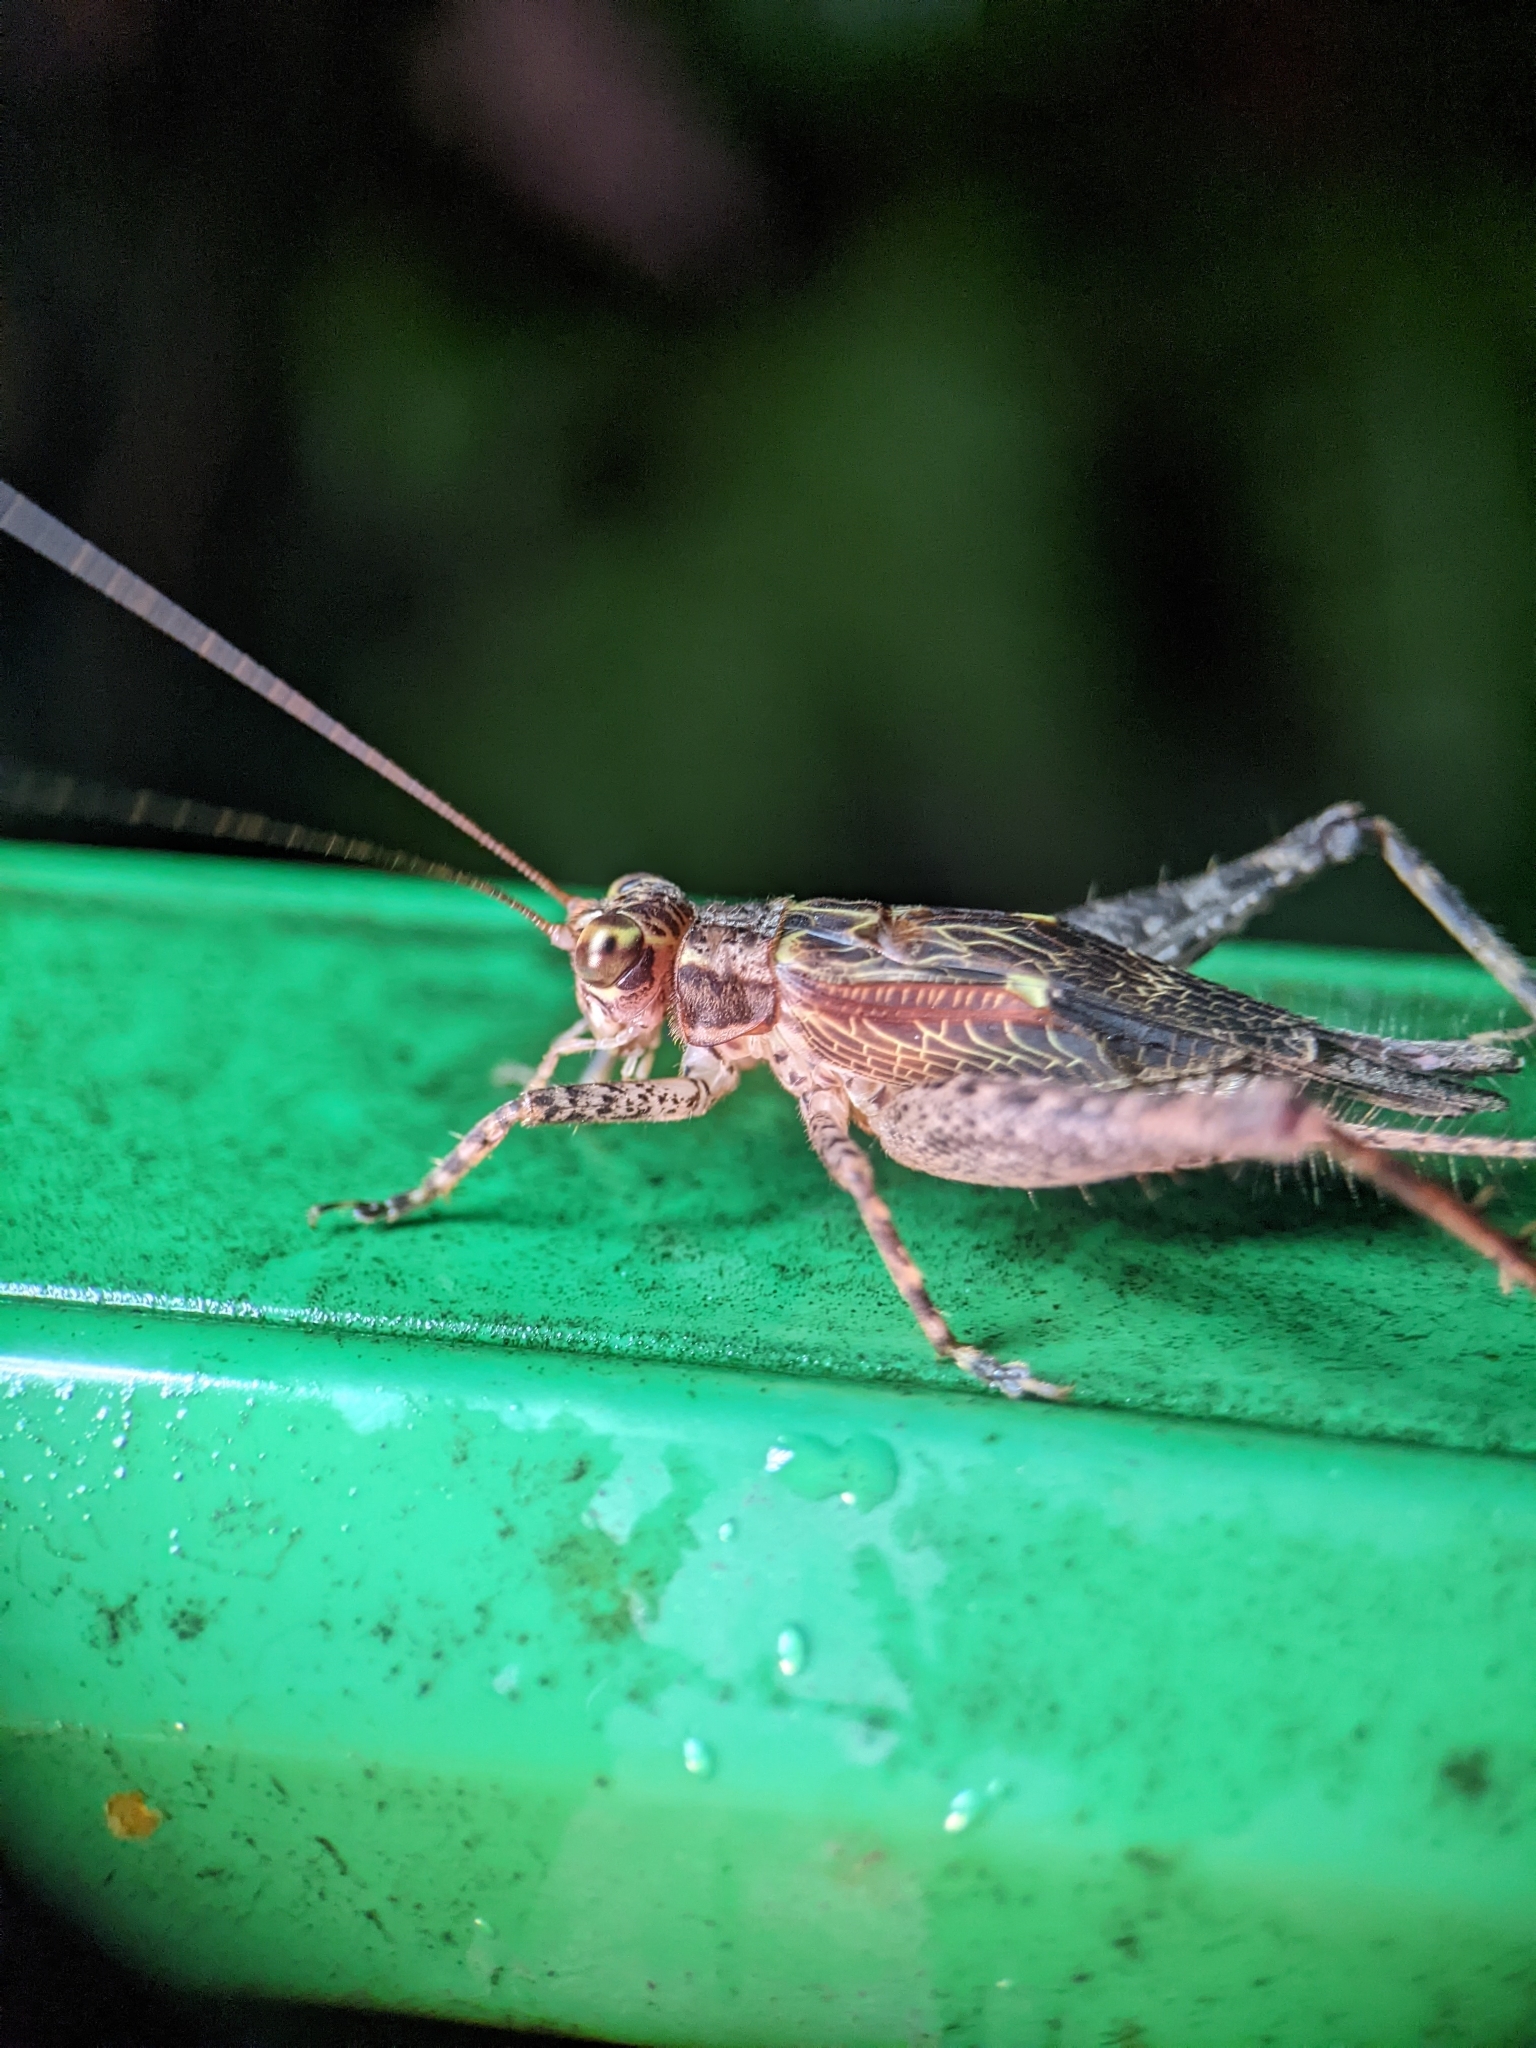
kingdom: Animalia
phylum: Arthropoda
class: Insecta
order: Orthoptera
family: Gryllidae
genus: Cardiodactylus
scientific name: Cardiodactylus singapura
